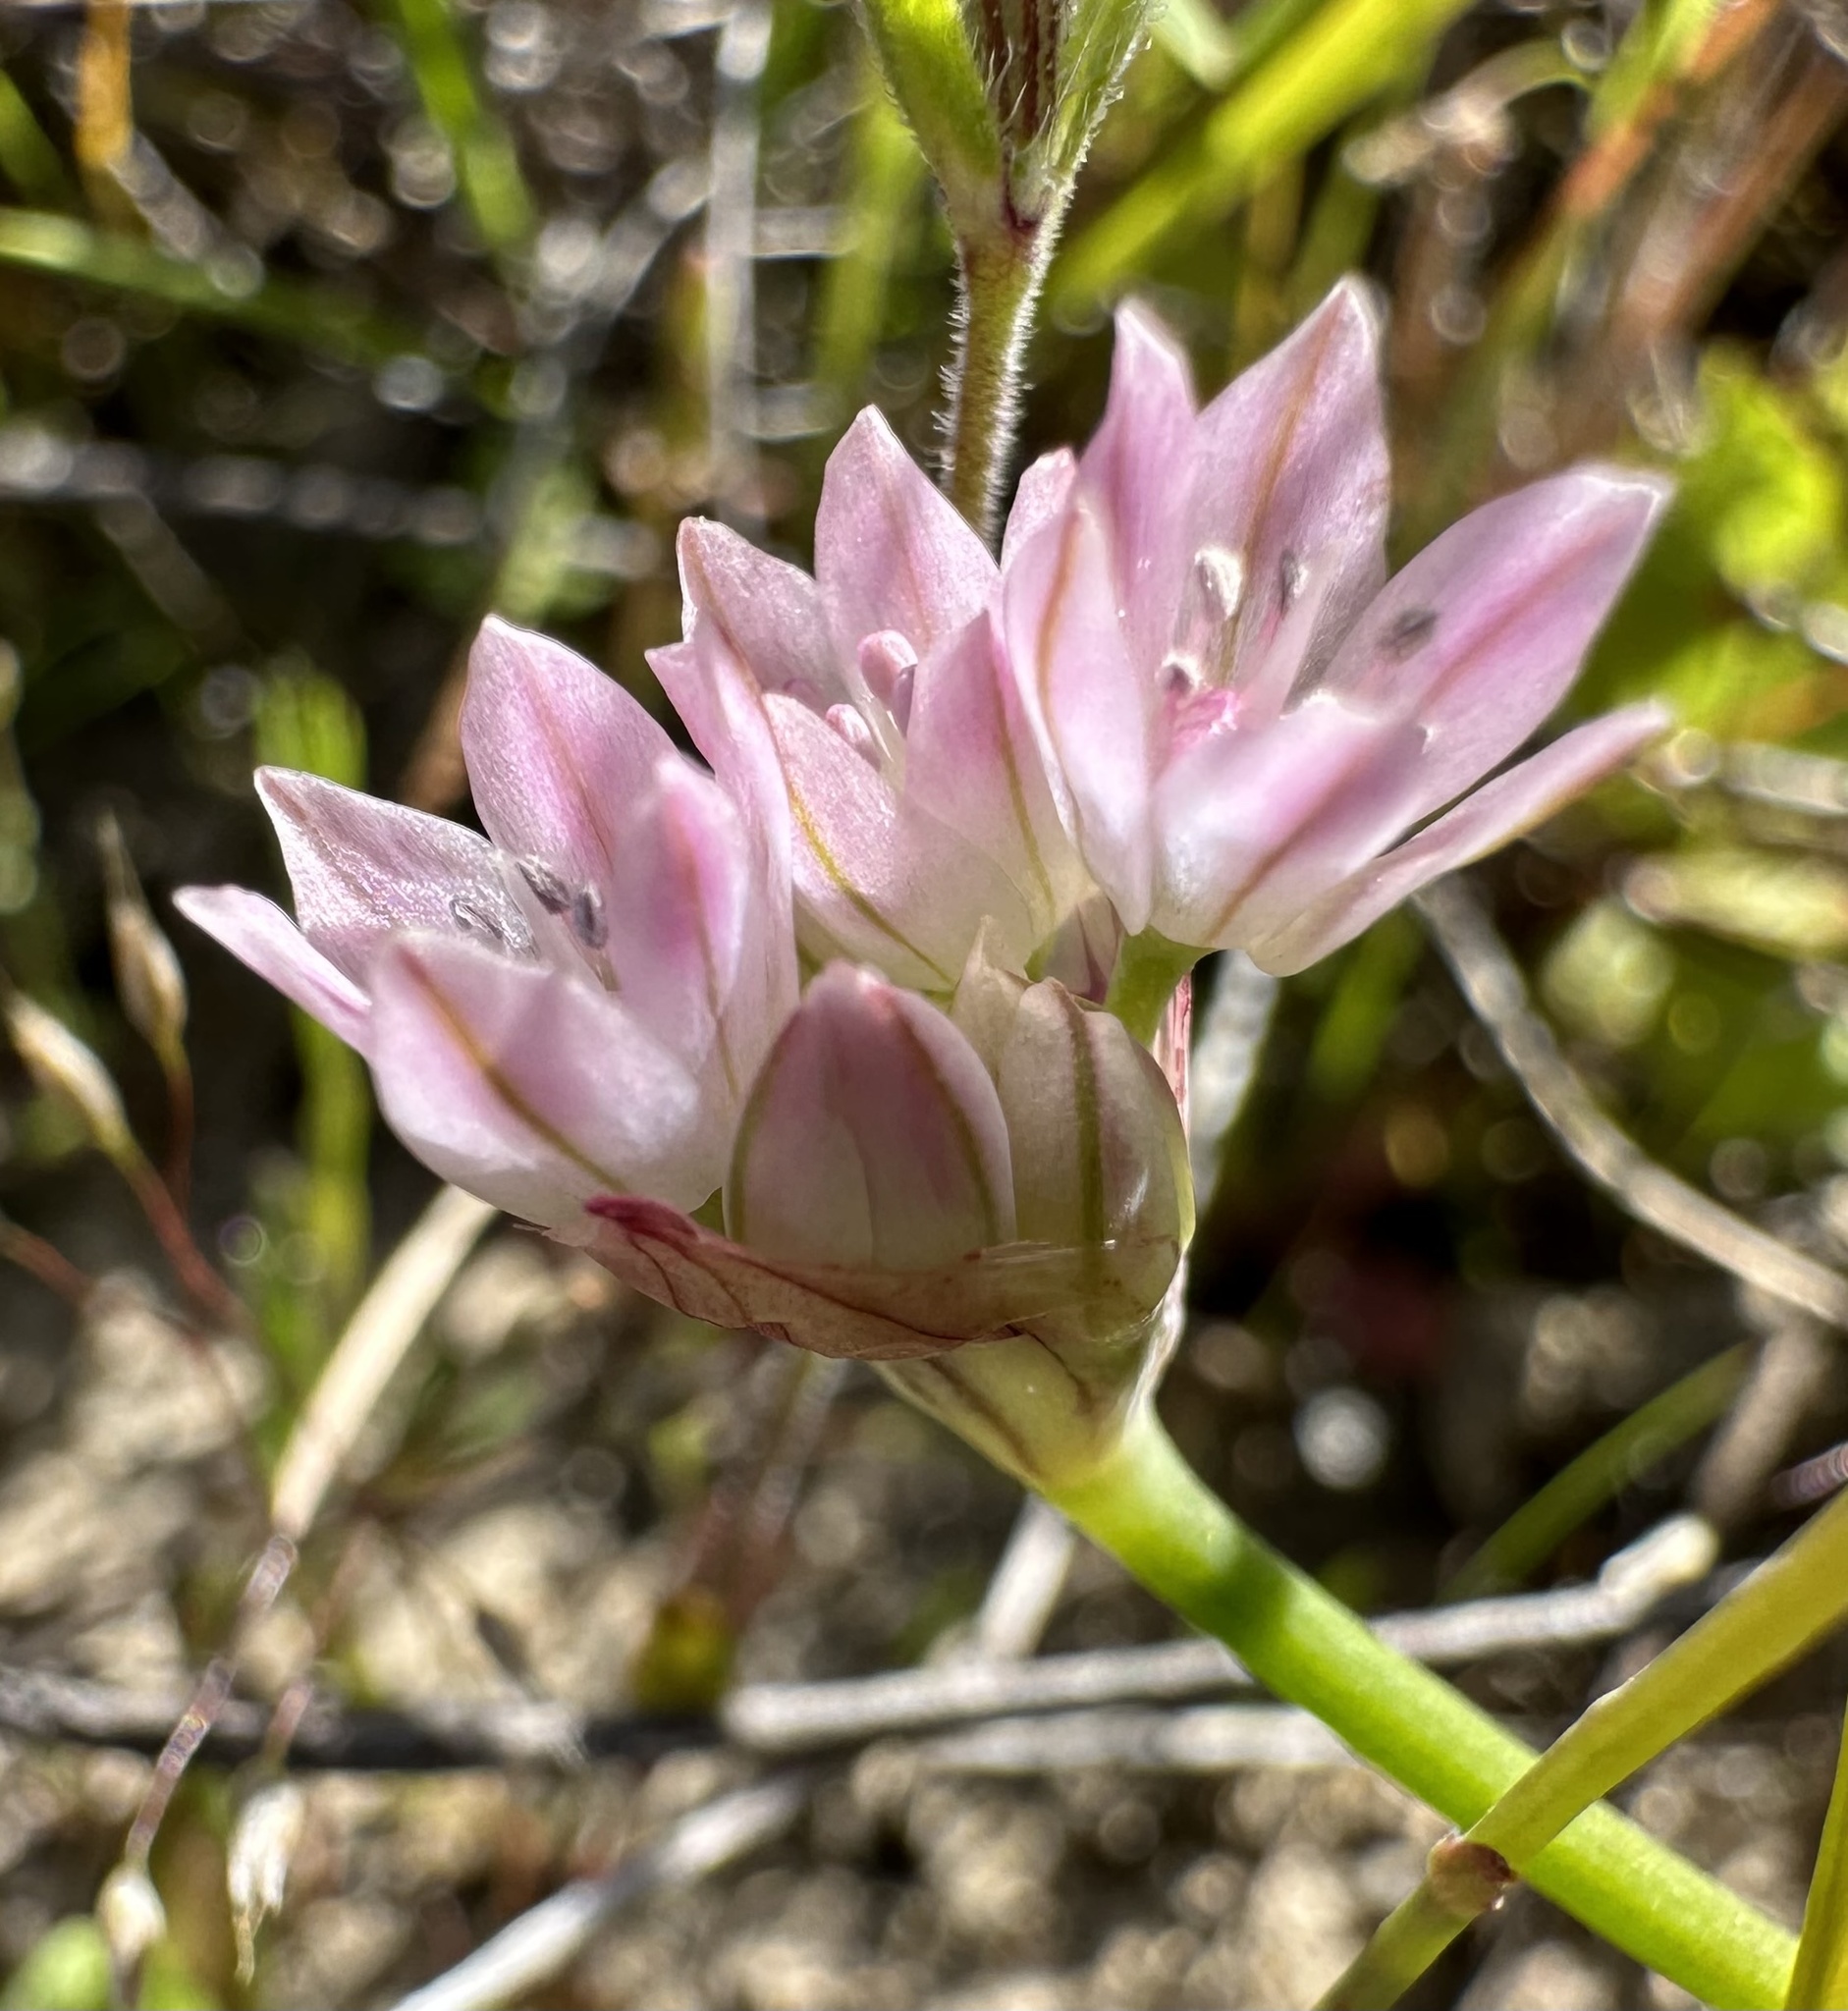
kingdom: Plantae
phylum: Tracheophyta
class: Liliopsida
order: Asparagales
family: Amaryllidaceae
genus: Allium
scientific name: Allium hickmanii
